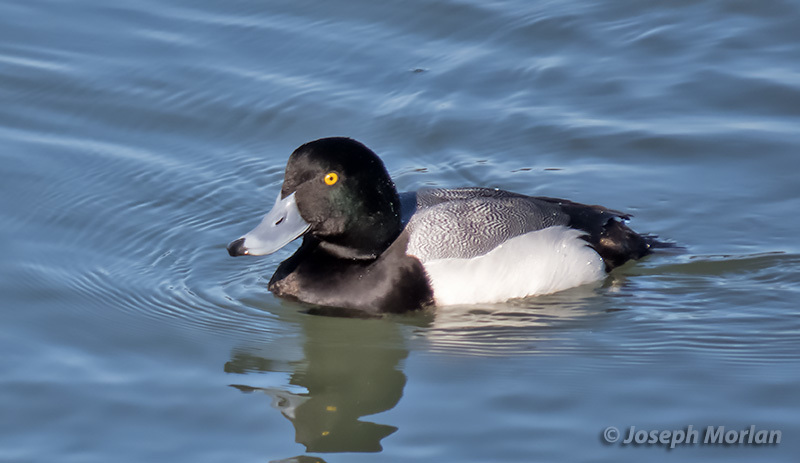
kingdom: Animalia
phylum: Chordata
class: Aves
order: Anseriformes
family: Anatidae
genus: Aythya
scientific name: Aythya marila
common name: Greater scaup
